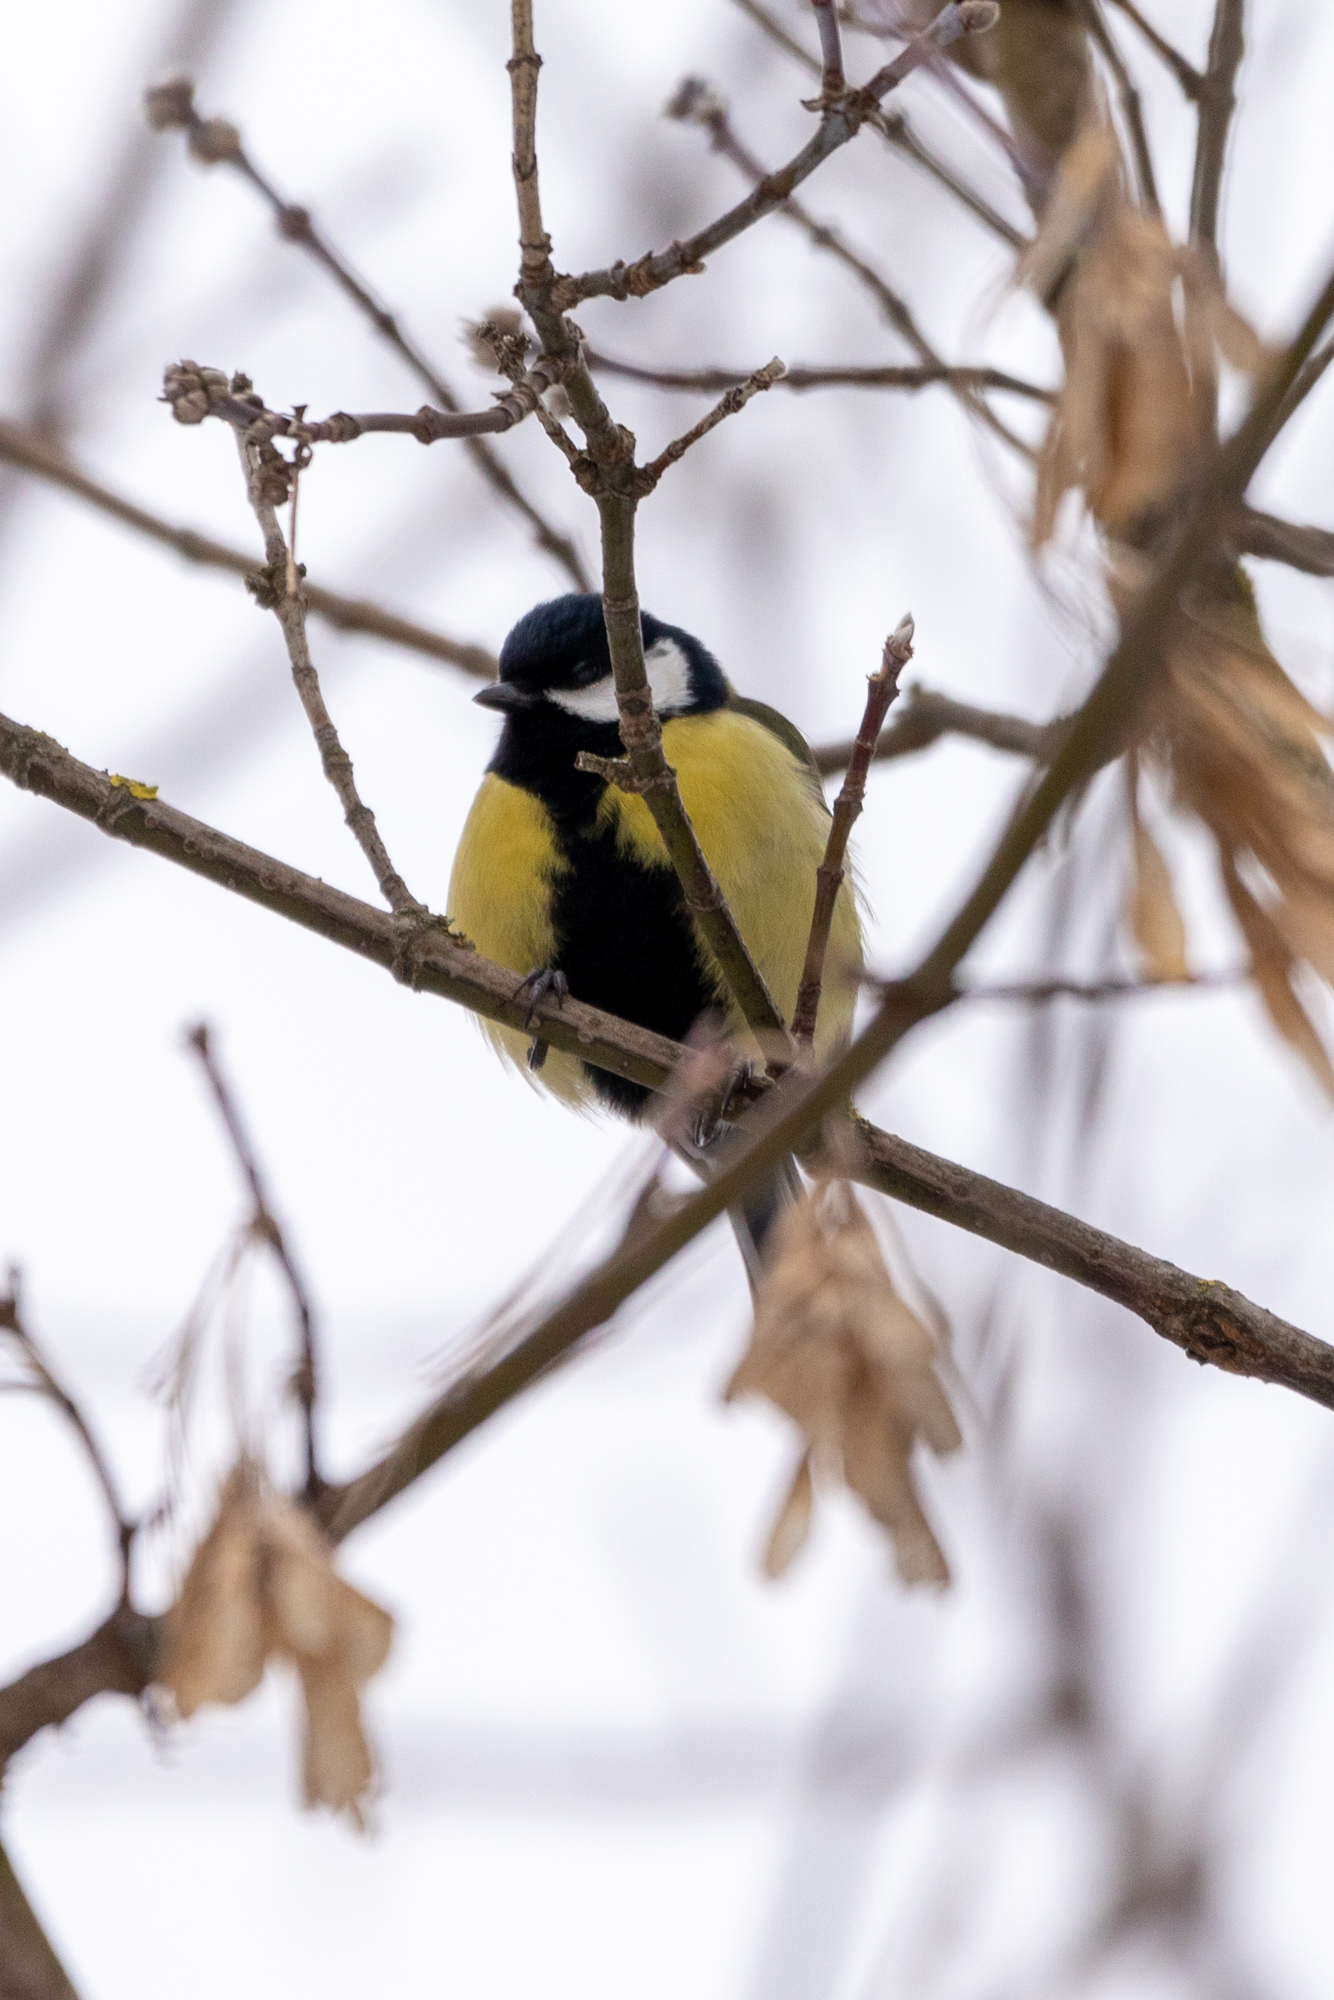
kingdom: Animalia
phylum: Chordata
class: Aves
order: Passeriformes
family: Paridae
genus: Parus
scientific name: Parus major
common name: Great tit
